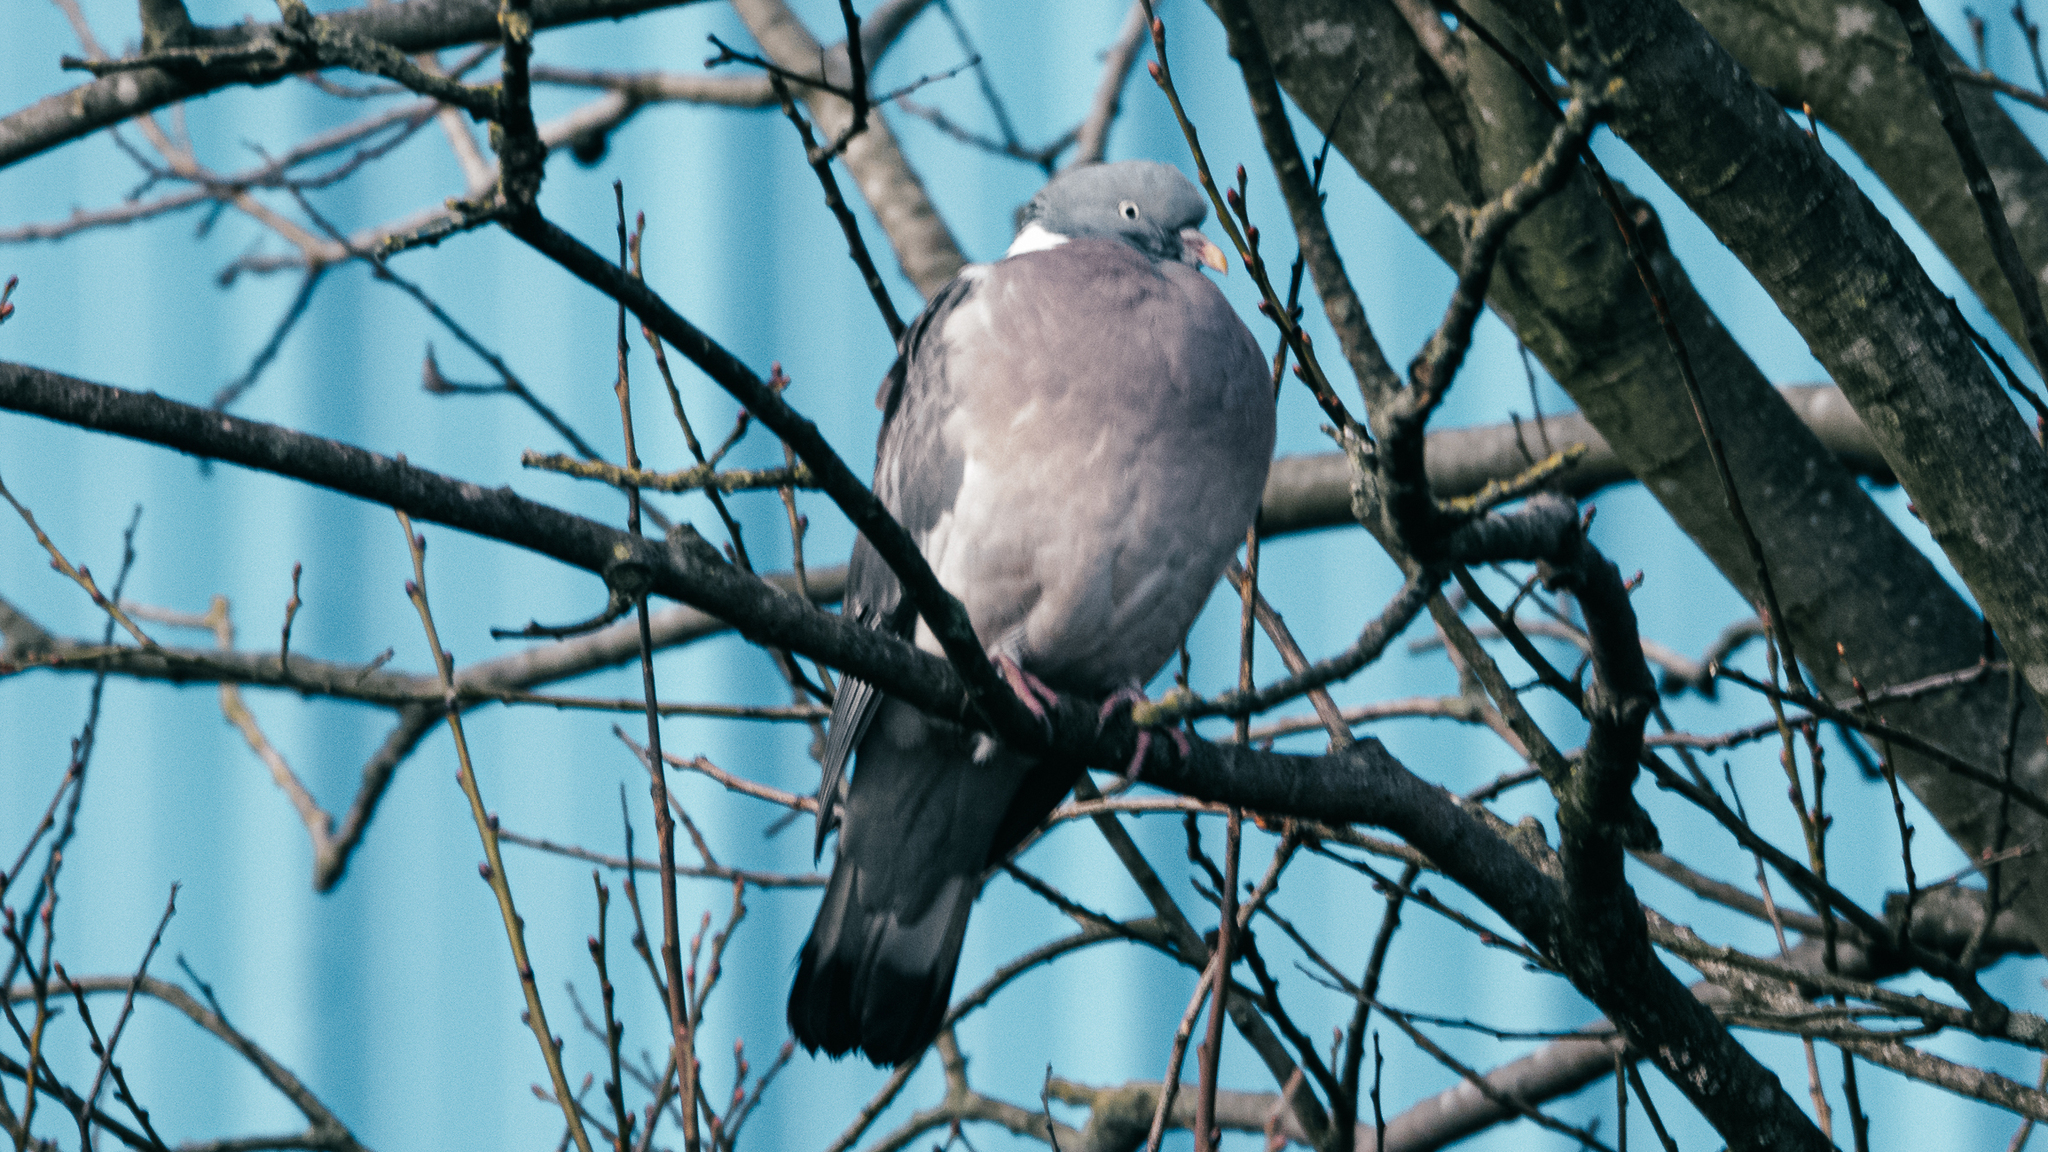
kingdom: Animalia
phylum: Chordata
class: Aves
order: Columbiformes
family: Columbidae
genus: Columba
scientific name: Columba palumbus
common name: Common wood pigeon
